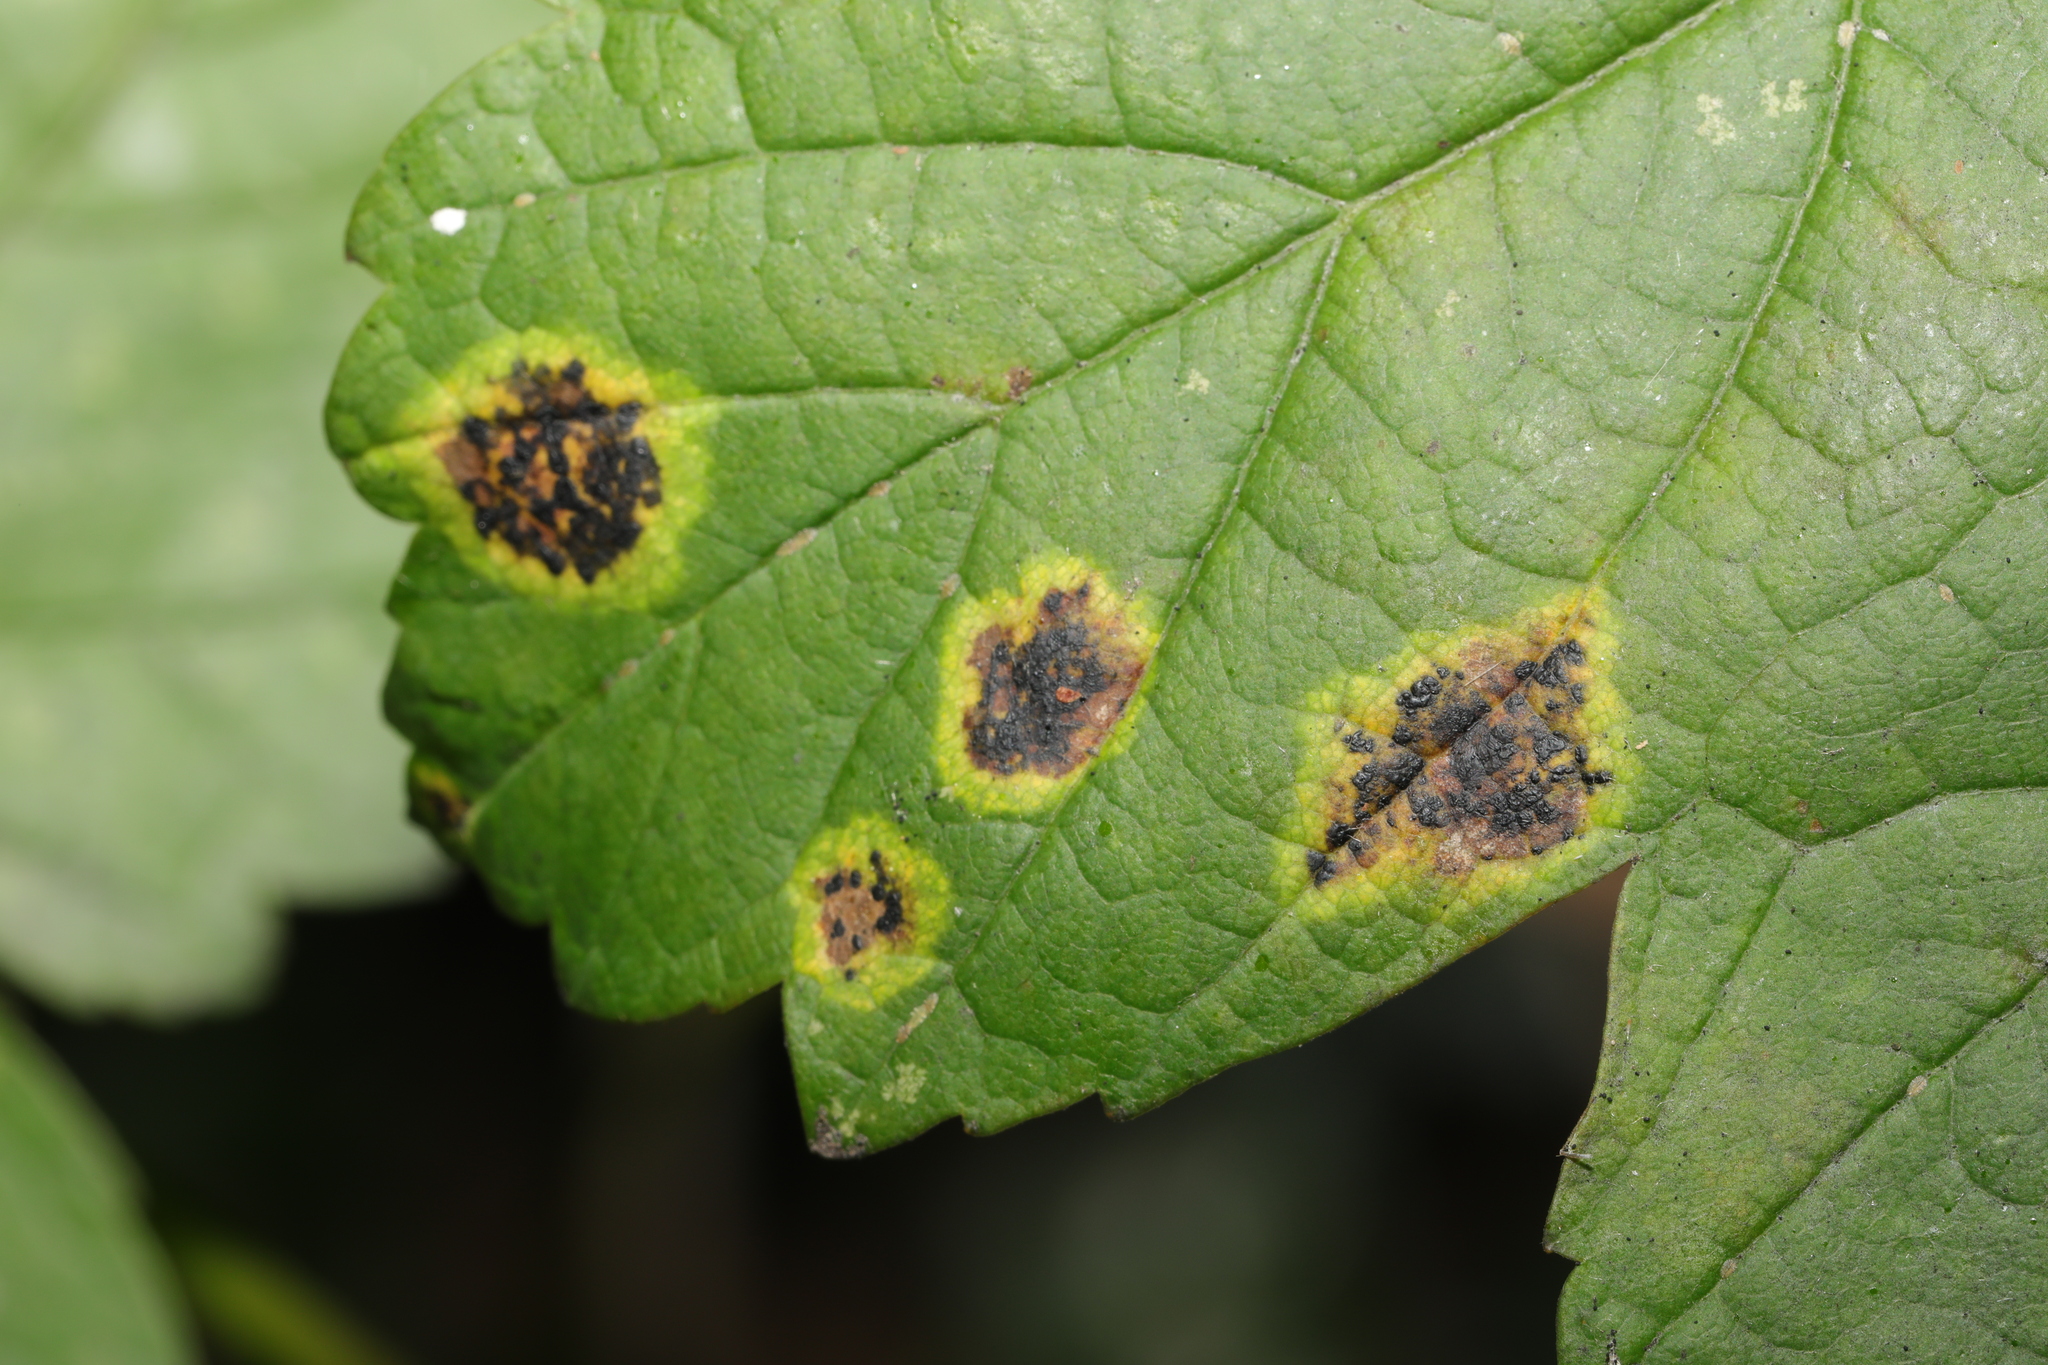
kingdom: Fungi
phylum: Ascomycota
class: Leotiomycetes
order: Rhytismatales
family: Rhytismataceae
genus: Rhytisma
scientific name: Rhytisma acerinum
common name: European tar spot
